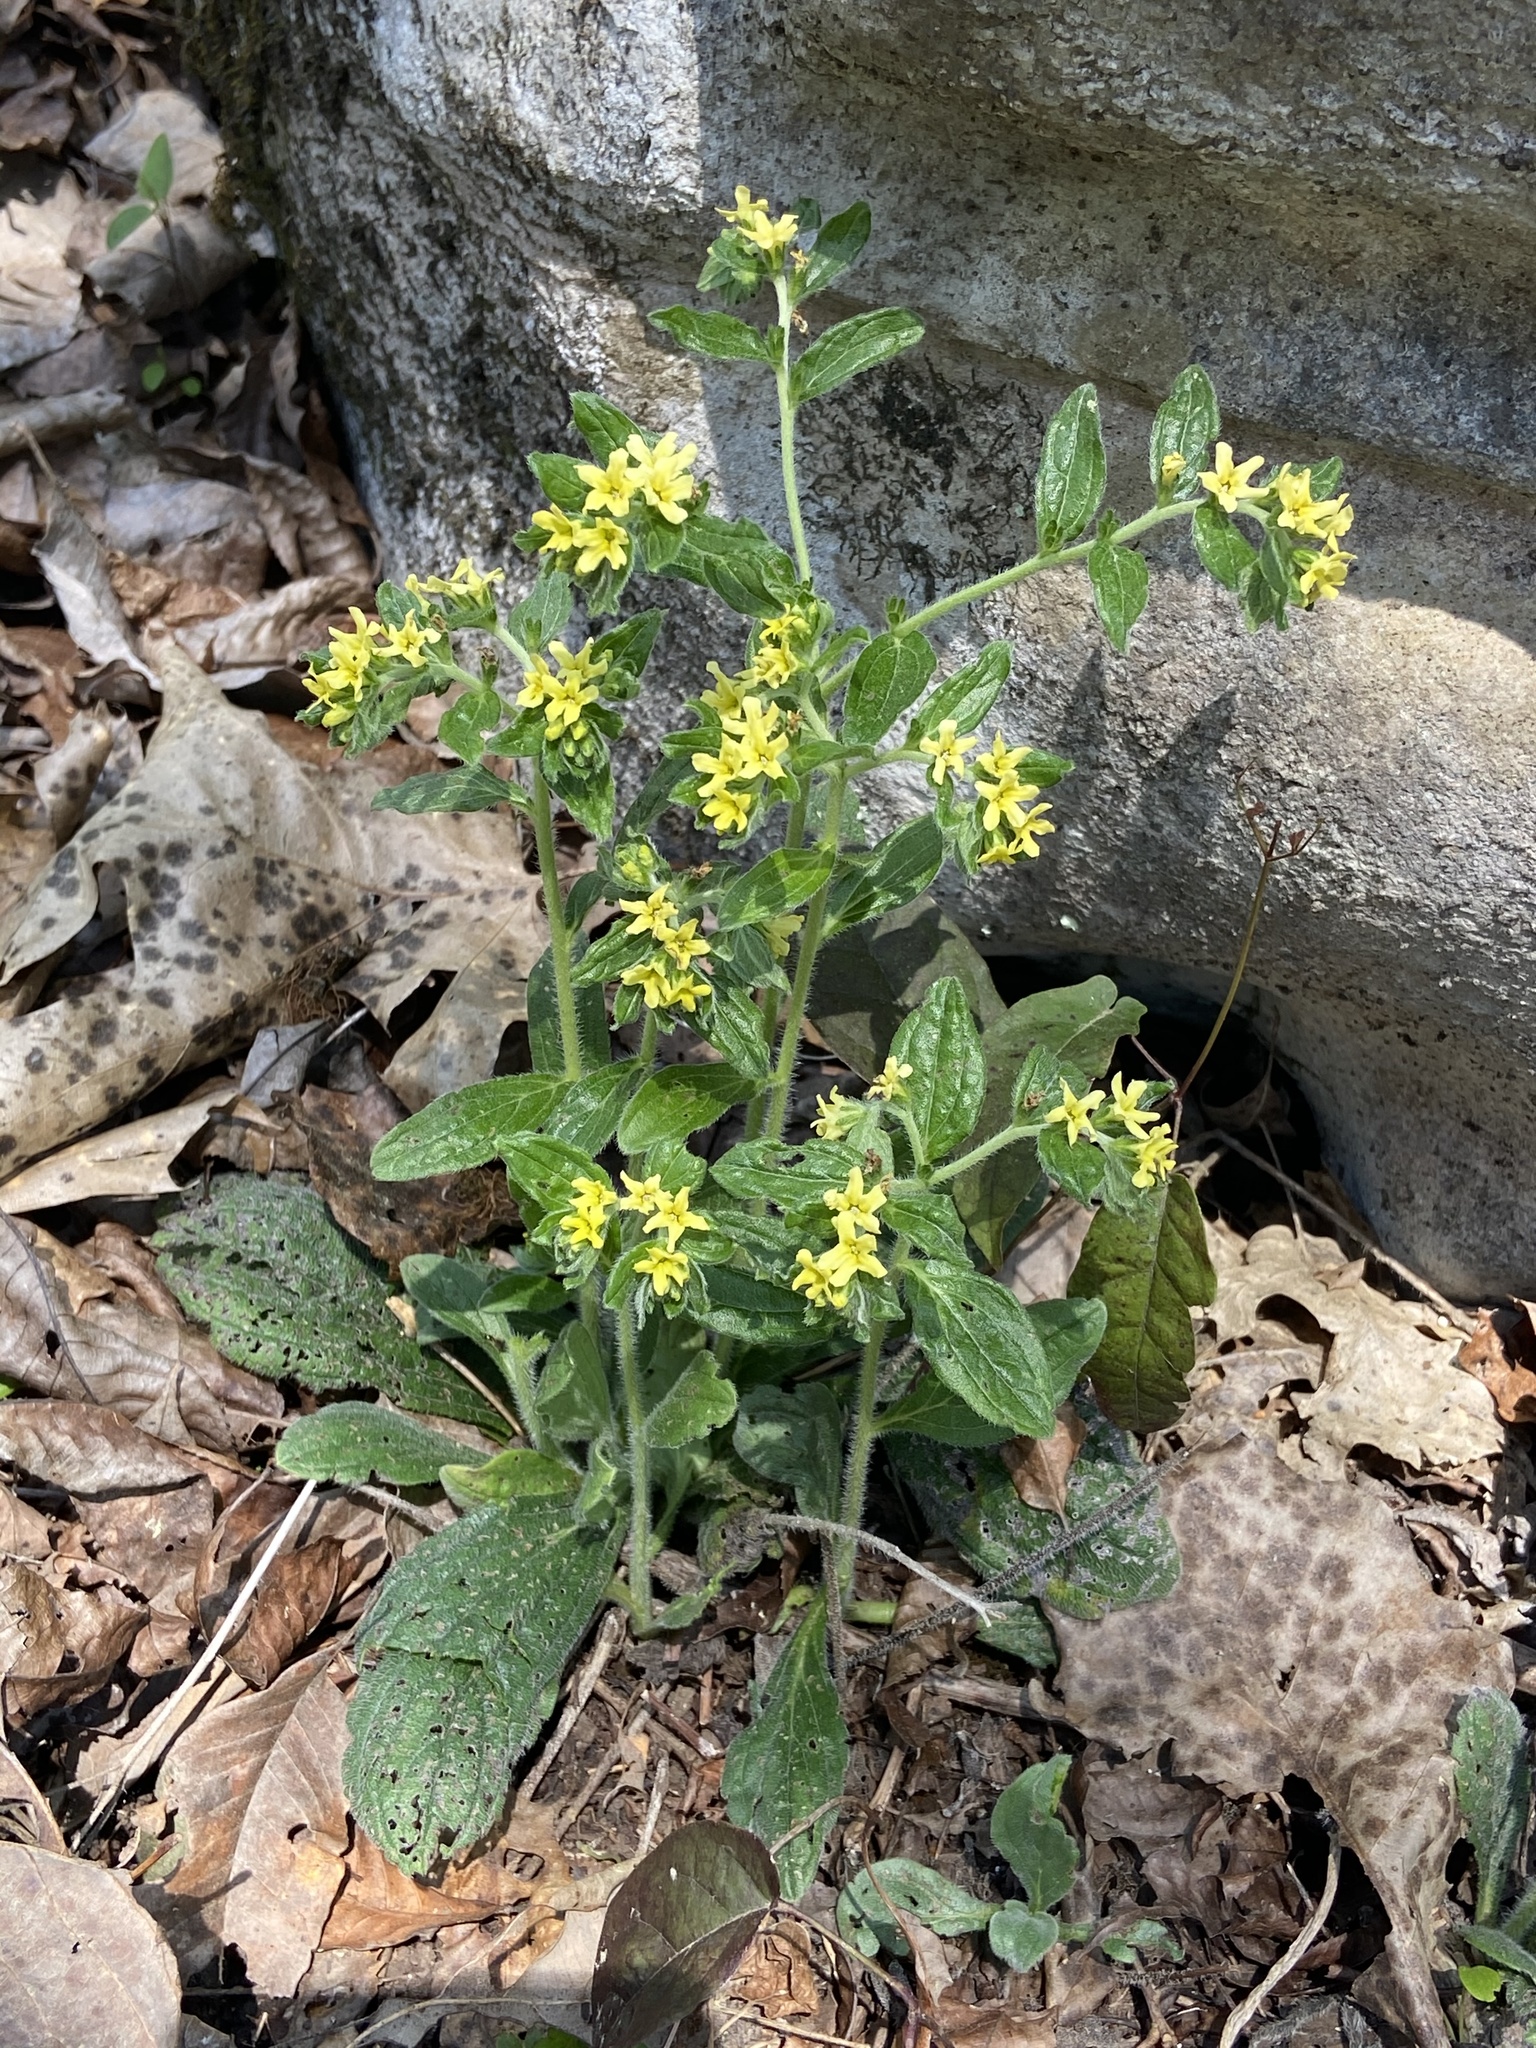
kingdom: Plantae
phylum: Tracheophyta
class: Magnoliopsida
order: Boraginales
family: Boraginaceae
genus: Lithospermum
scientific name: Lithospermum tuberosum
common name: Southern stoneseed
